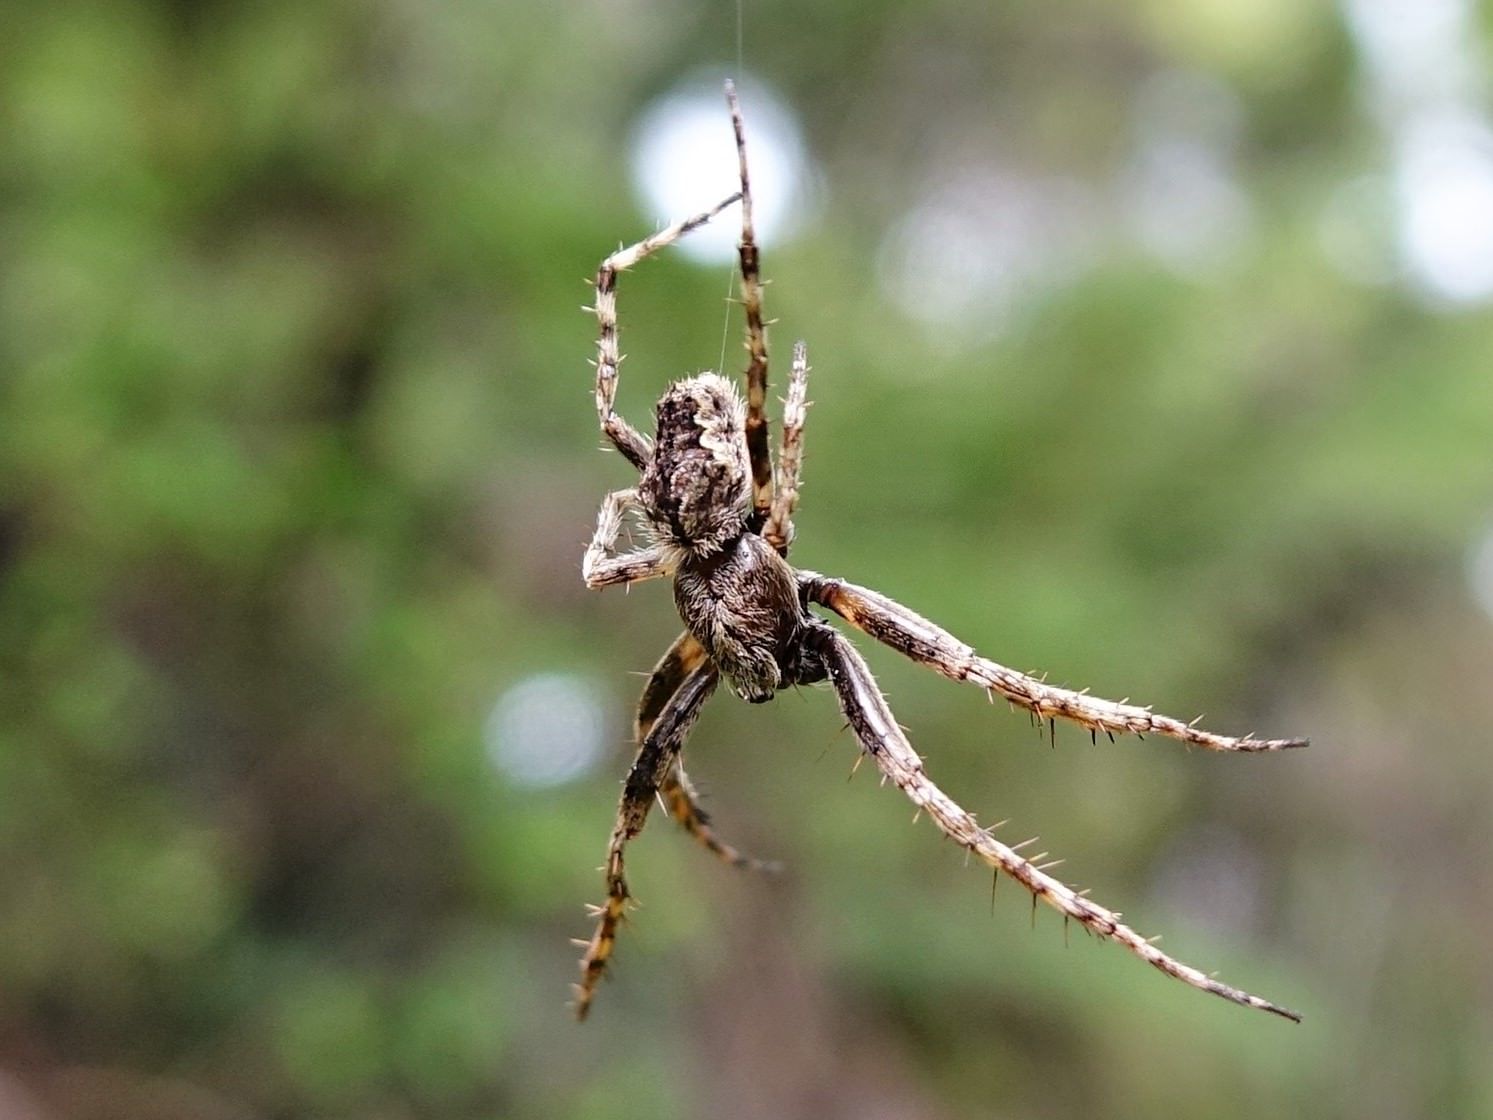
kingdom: Animalia
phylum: Arthropoda
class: Arachnida
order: Araneae
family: Araneidae
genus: Eriophora
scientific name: Eriophora pustulosa
